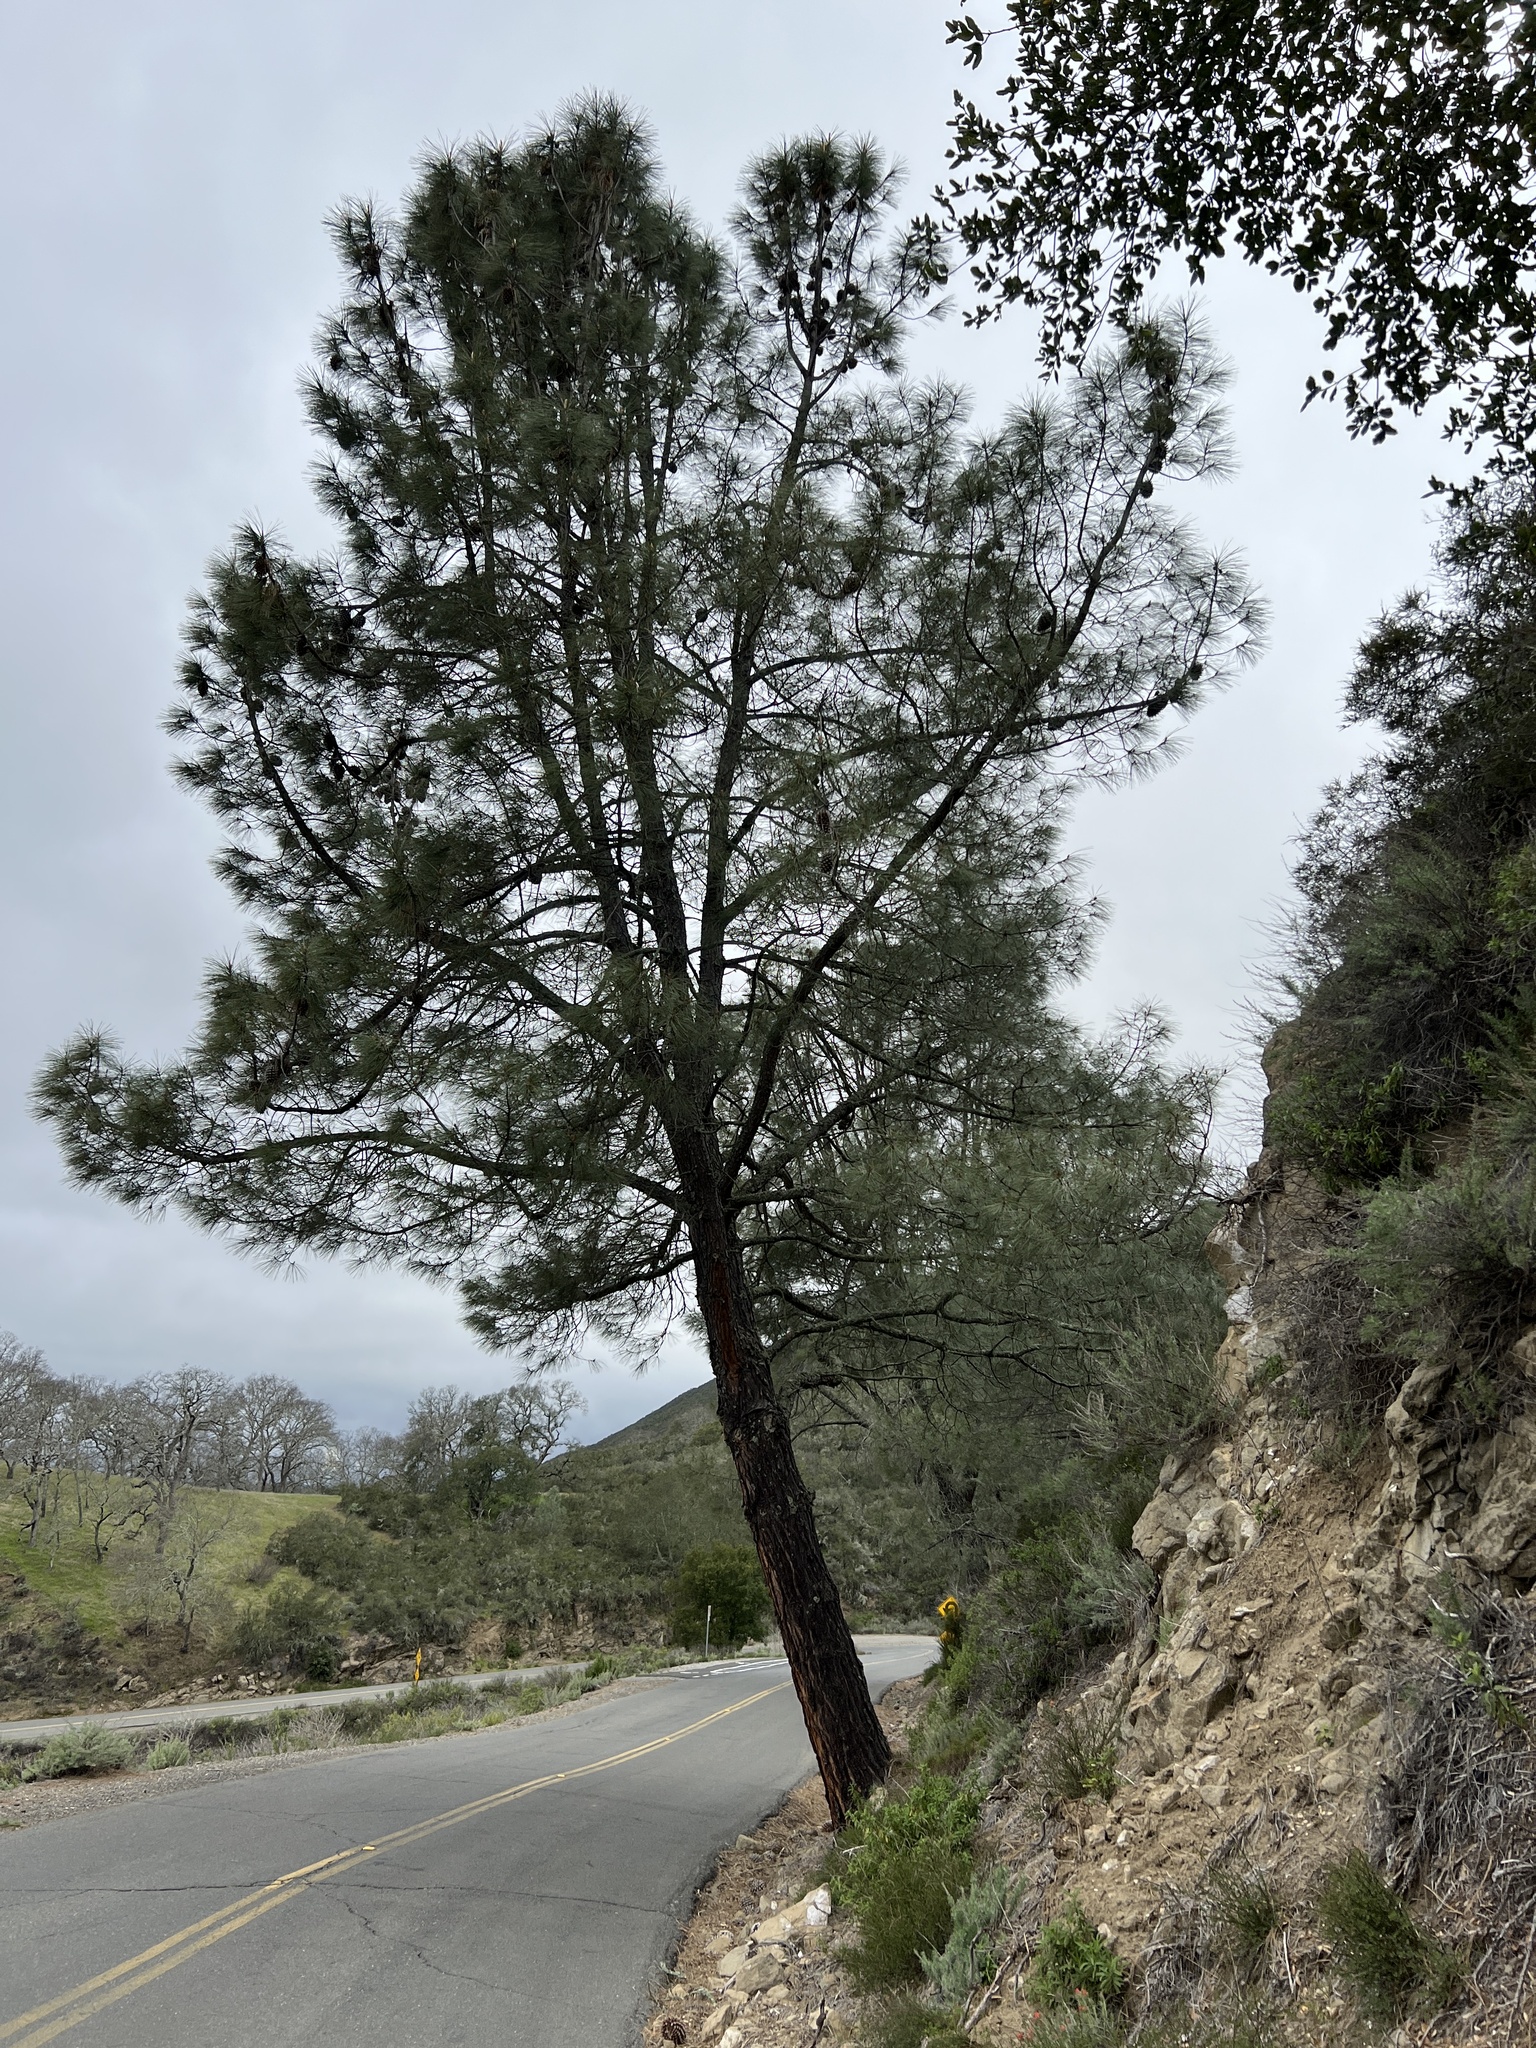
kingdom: Plantae
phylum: Tracheophyta
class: Pinopsida
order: Pinales
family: Pinaceae
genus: Pinus
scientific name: Pinus sabiniana
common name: Bull pine
